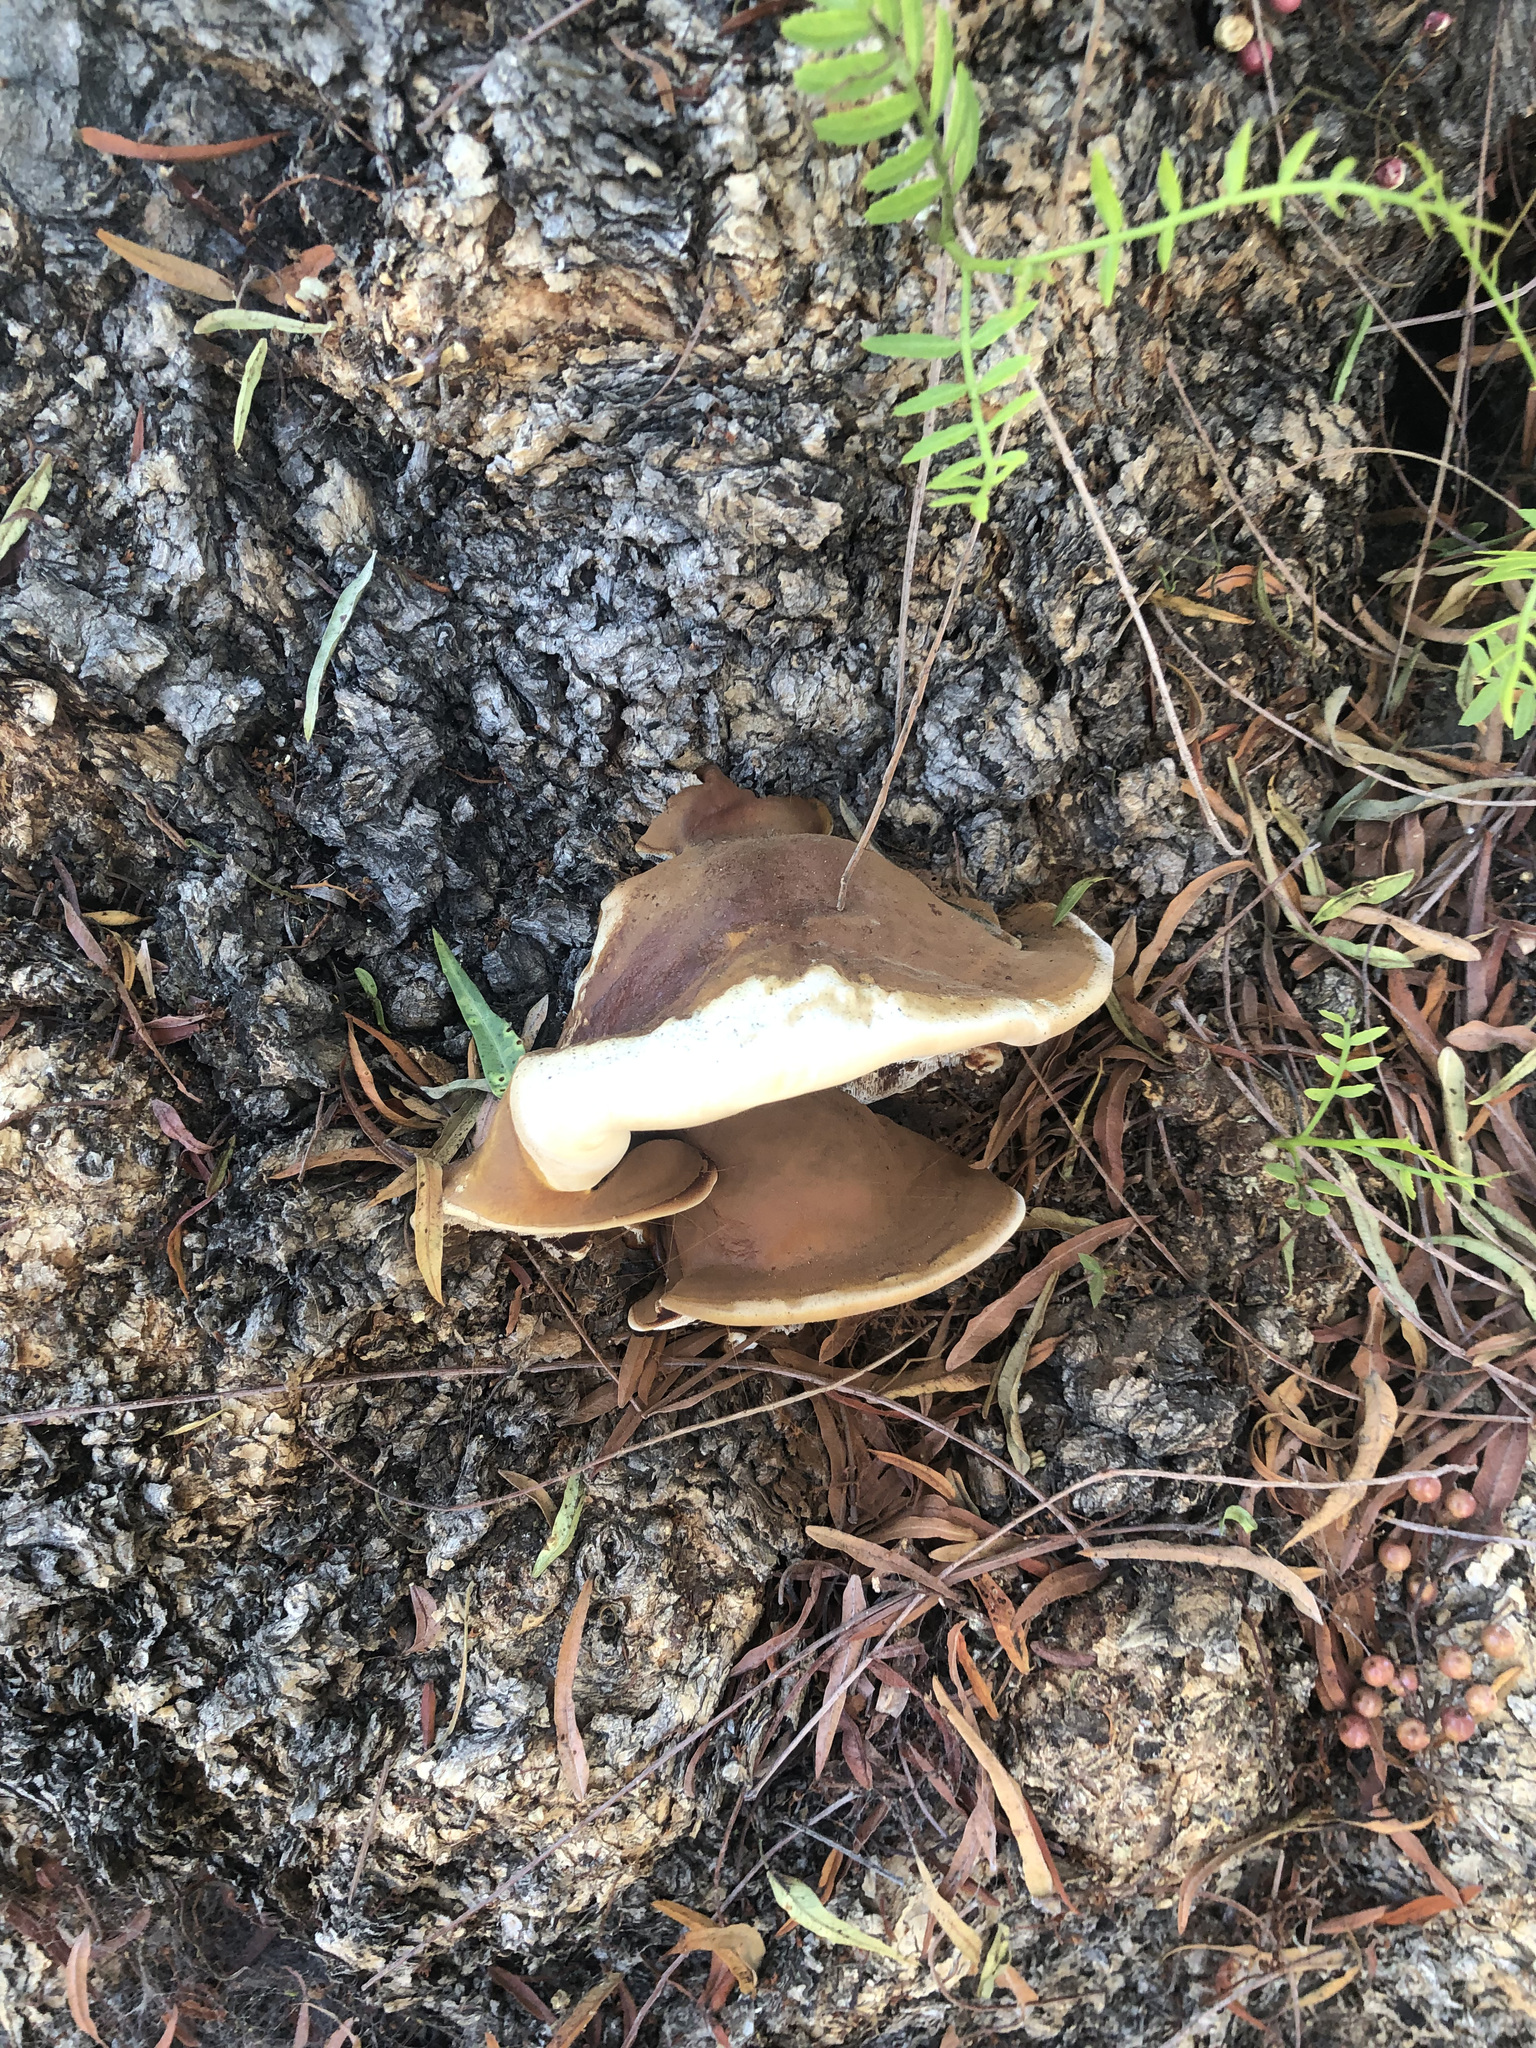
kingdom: Fungi
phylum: Basidiomycota
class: Agaricomycetes
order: Polyporales
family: Polyporaceae
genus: Ganoderma
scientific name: Ganoderma polychromum
